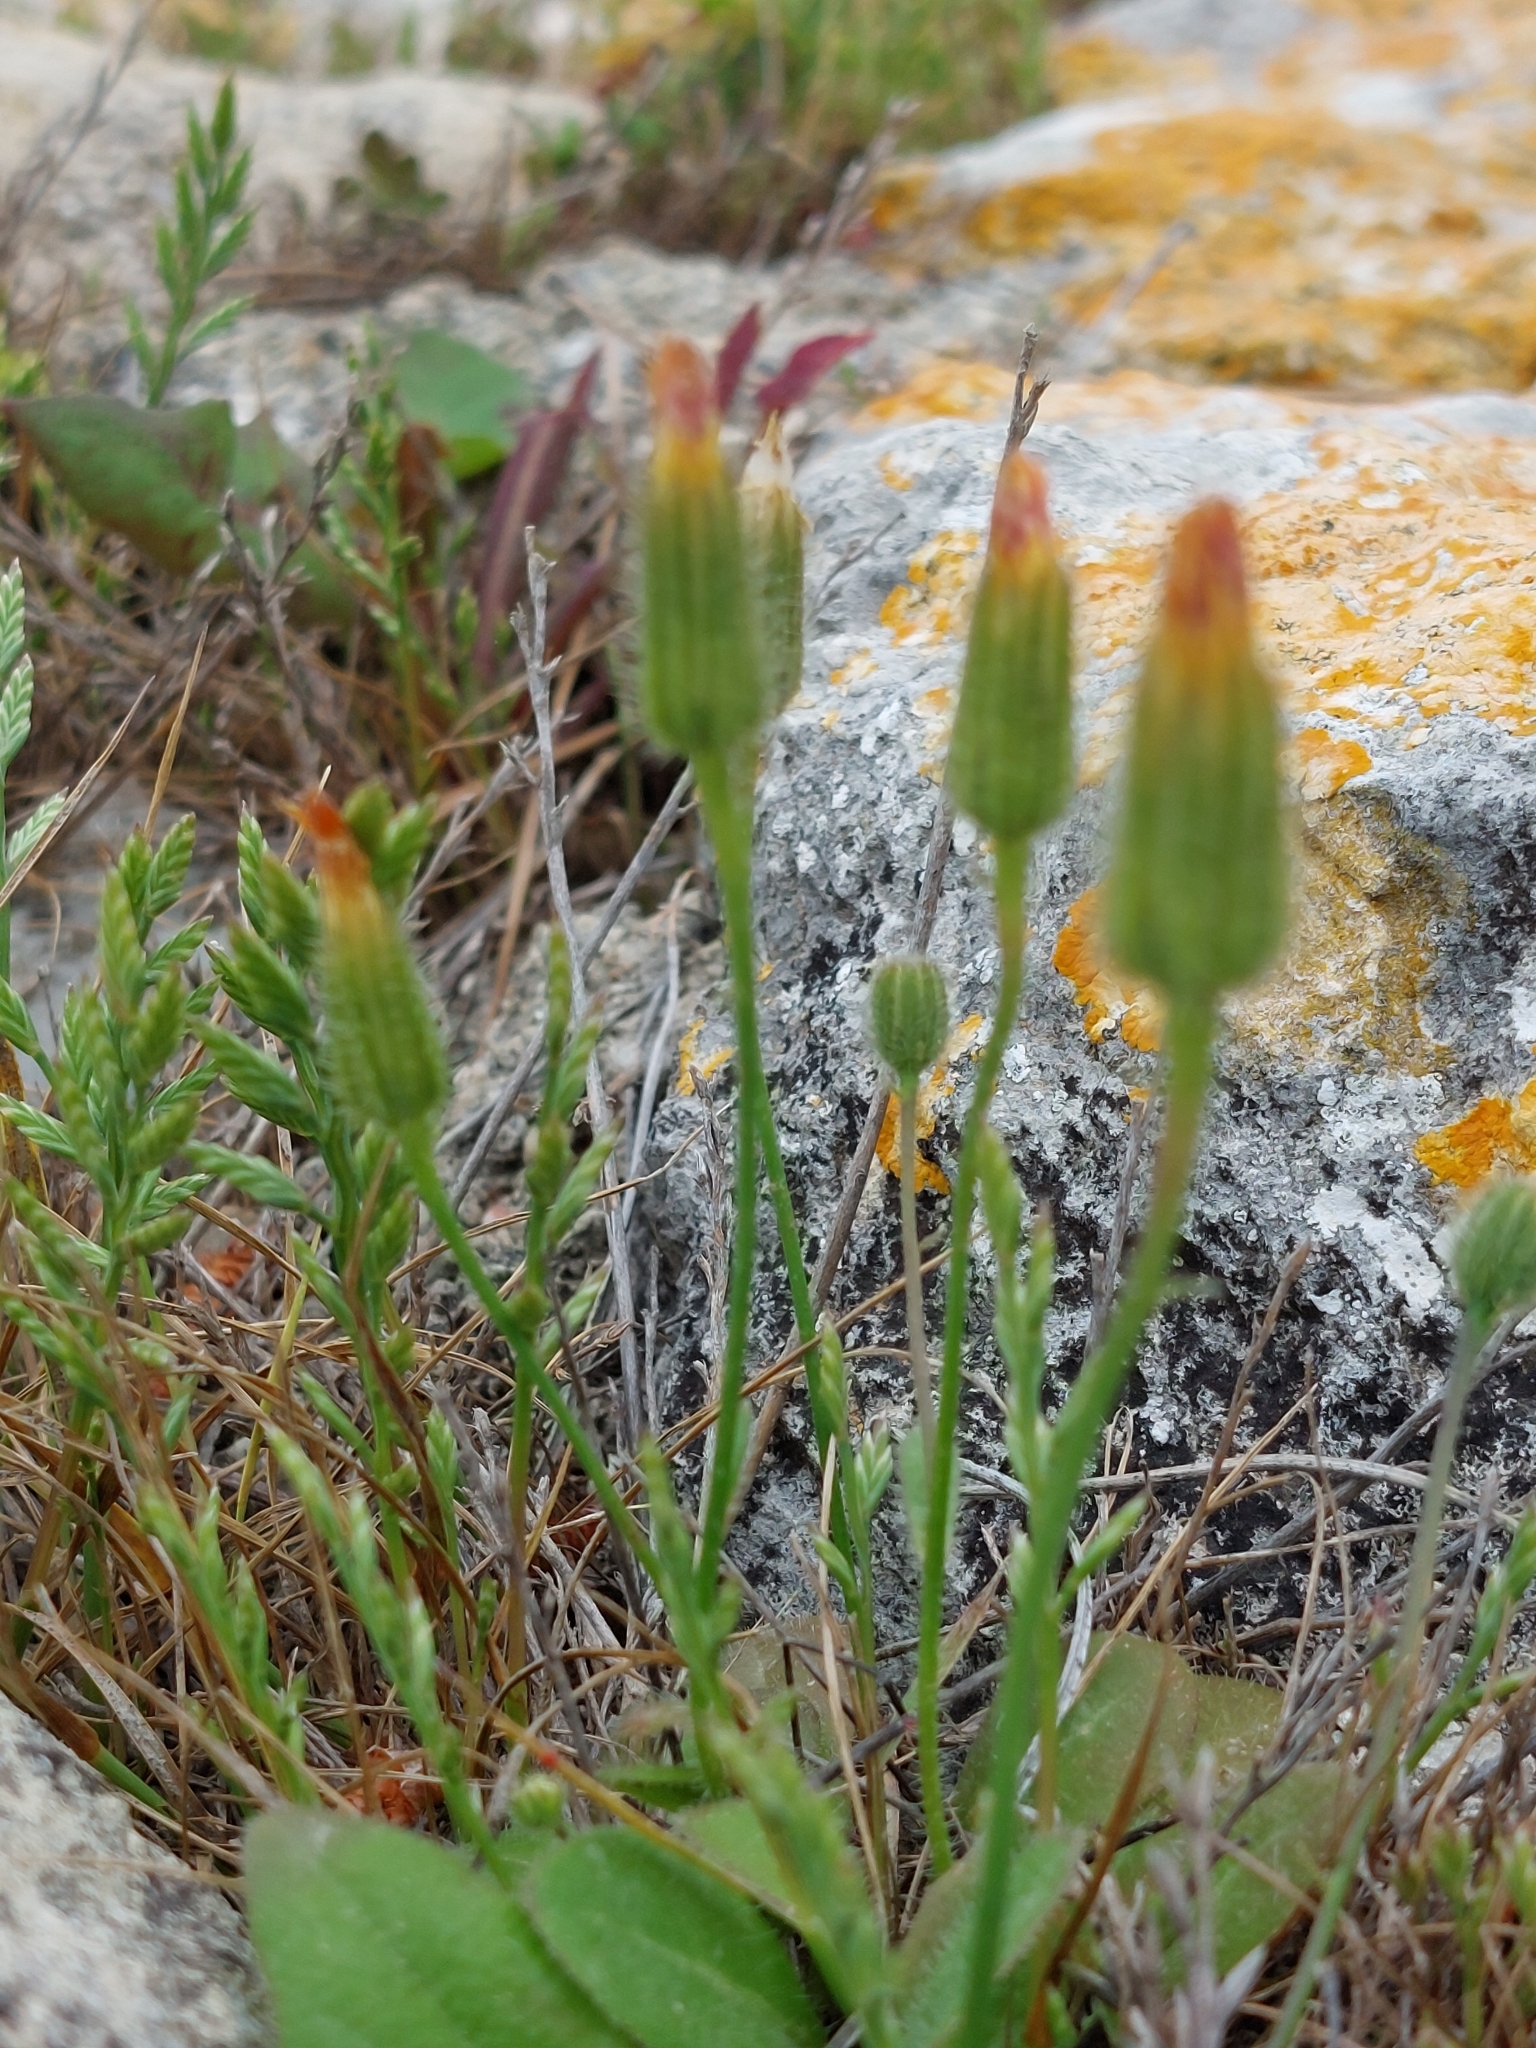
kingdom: Plantae
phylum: Tracheophyta
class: Magnoliopsida
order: Asterales
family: Asteraceae
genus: Achyrophorus
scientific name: Achyrophorus valdesii
